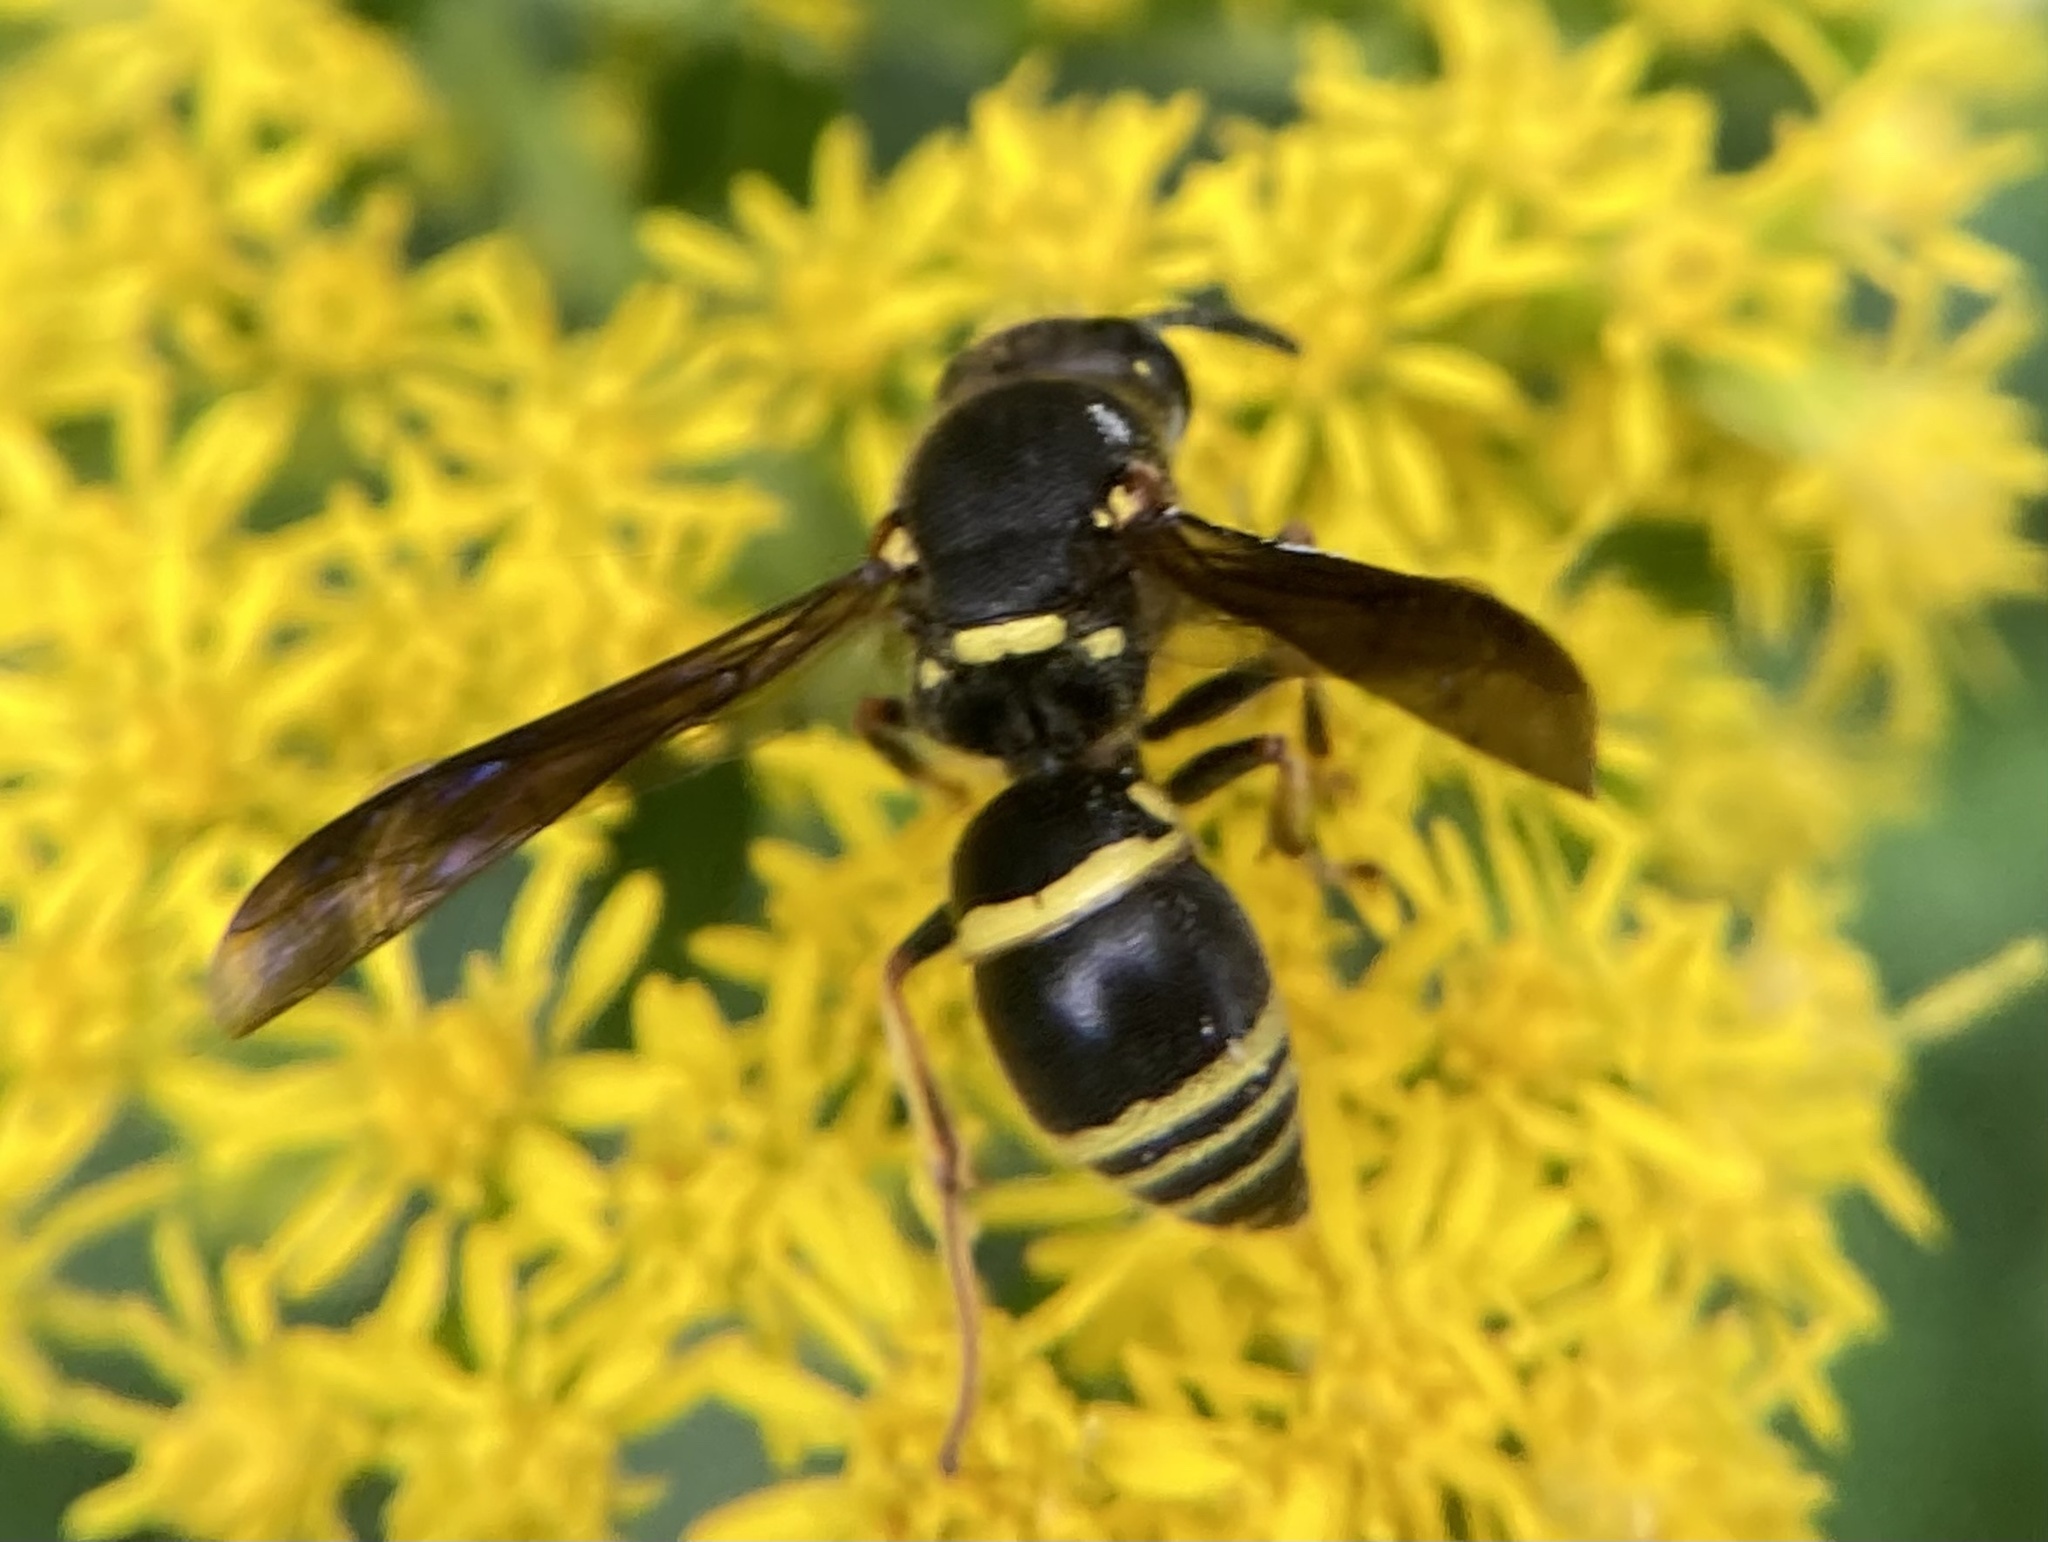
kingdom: Animalia
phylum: Arthropoda
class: Insecta
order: Hymenoptera
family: Eumenidae
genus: Euodynerus
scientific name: Euodynerus foraminatus
